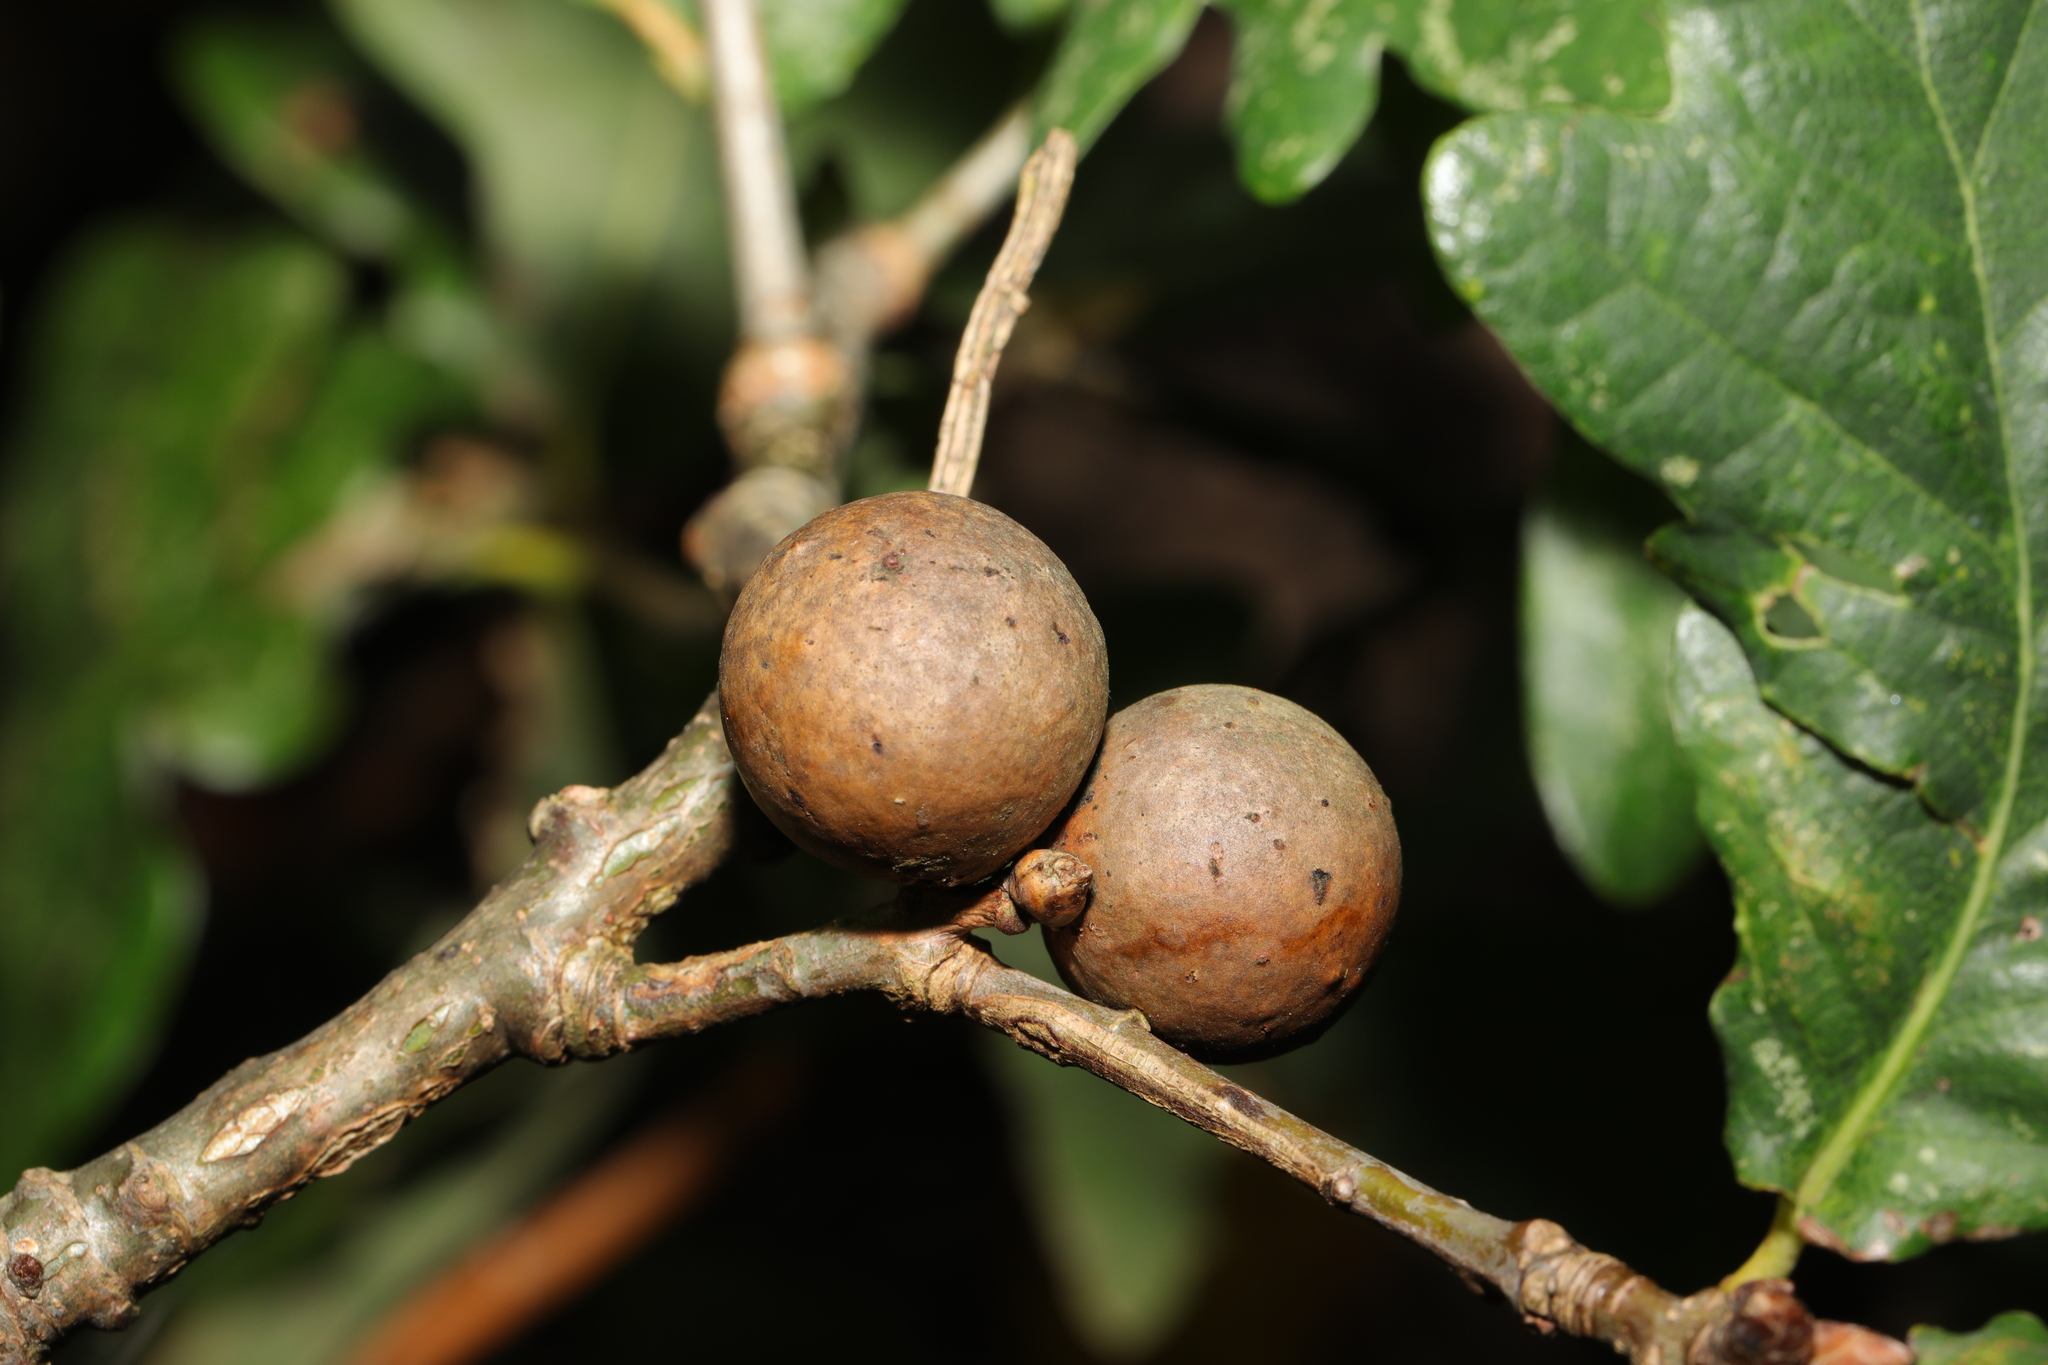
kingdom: Animalia
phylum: Arthropoda
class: Insecta
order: Hymenoptera
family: Cynipidae
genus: Andricus
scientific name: Andricus kollari
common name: Marble gall
